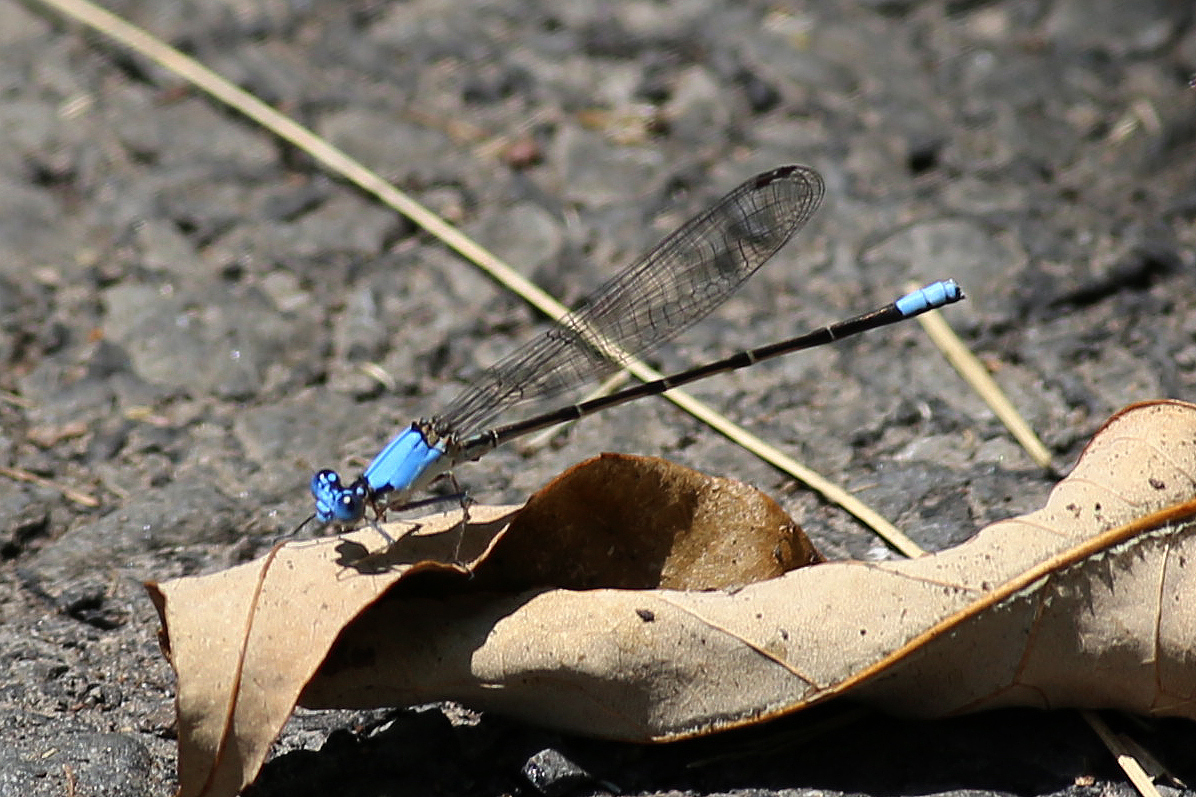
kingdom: Animalia
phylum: Arthropoda
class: Insecta
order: Odonata
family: Coenagrionidae
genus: Argia
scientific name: Argia apicalis
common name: Blue-fronted dancer
